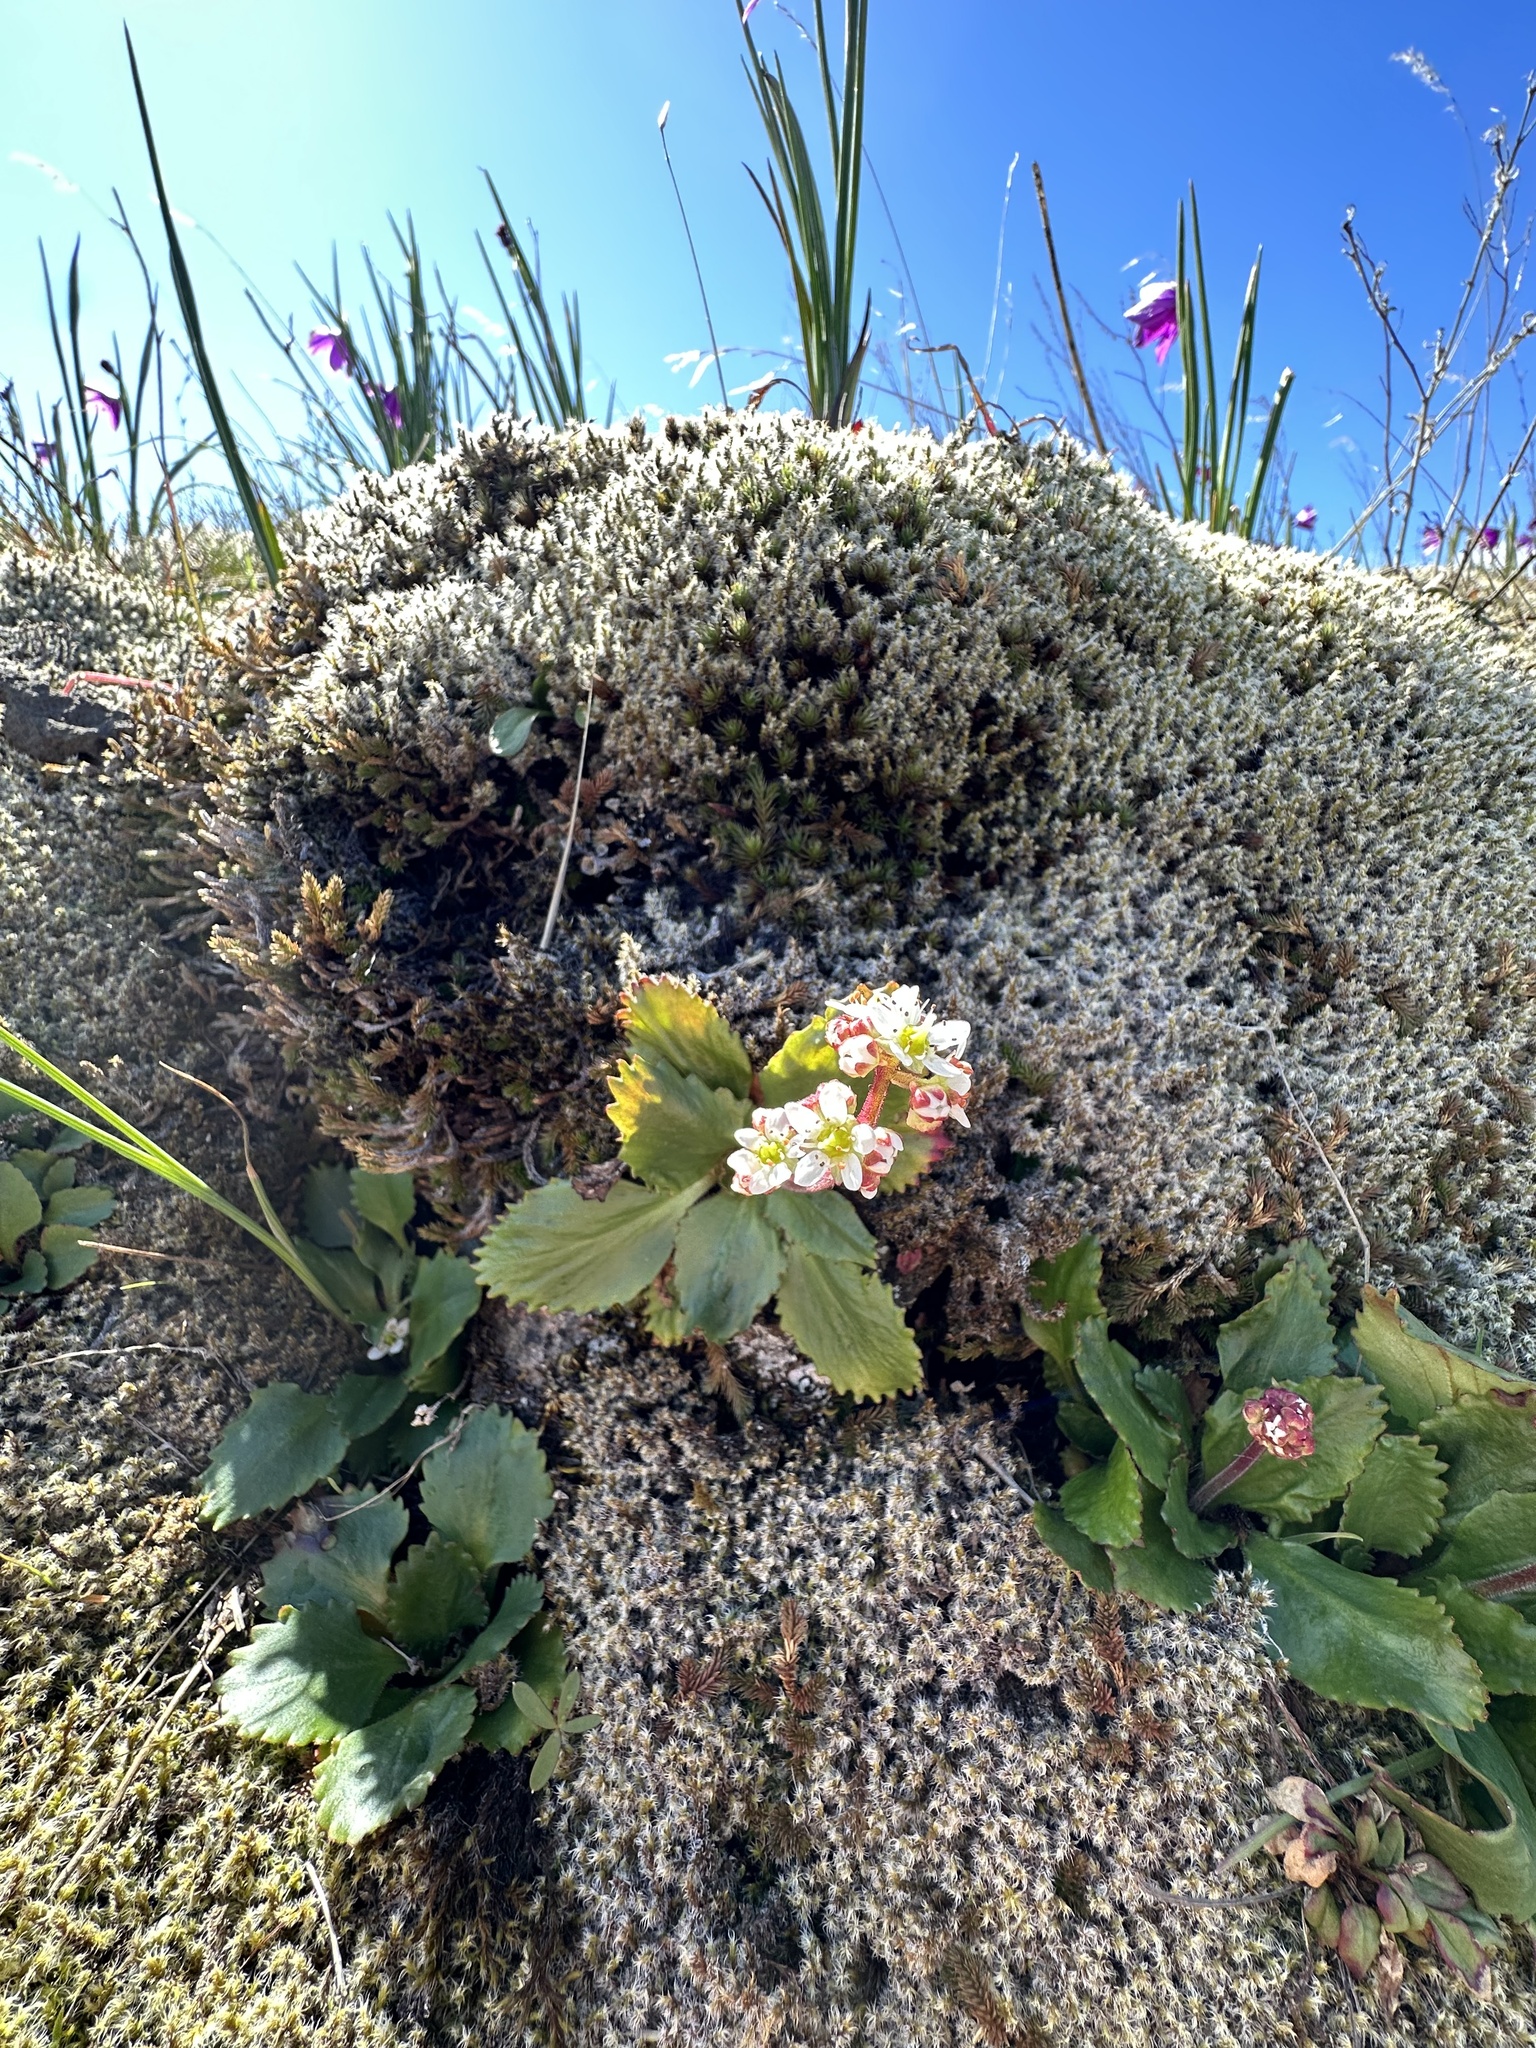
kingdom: Plantae
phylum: Tracheophyta
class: Magnoliopsida
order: Saxifragales
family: Saxifragaceae
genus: Micranthes
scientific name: Micranthes rufidula
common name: Rustyhair saxifrage
